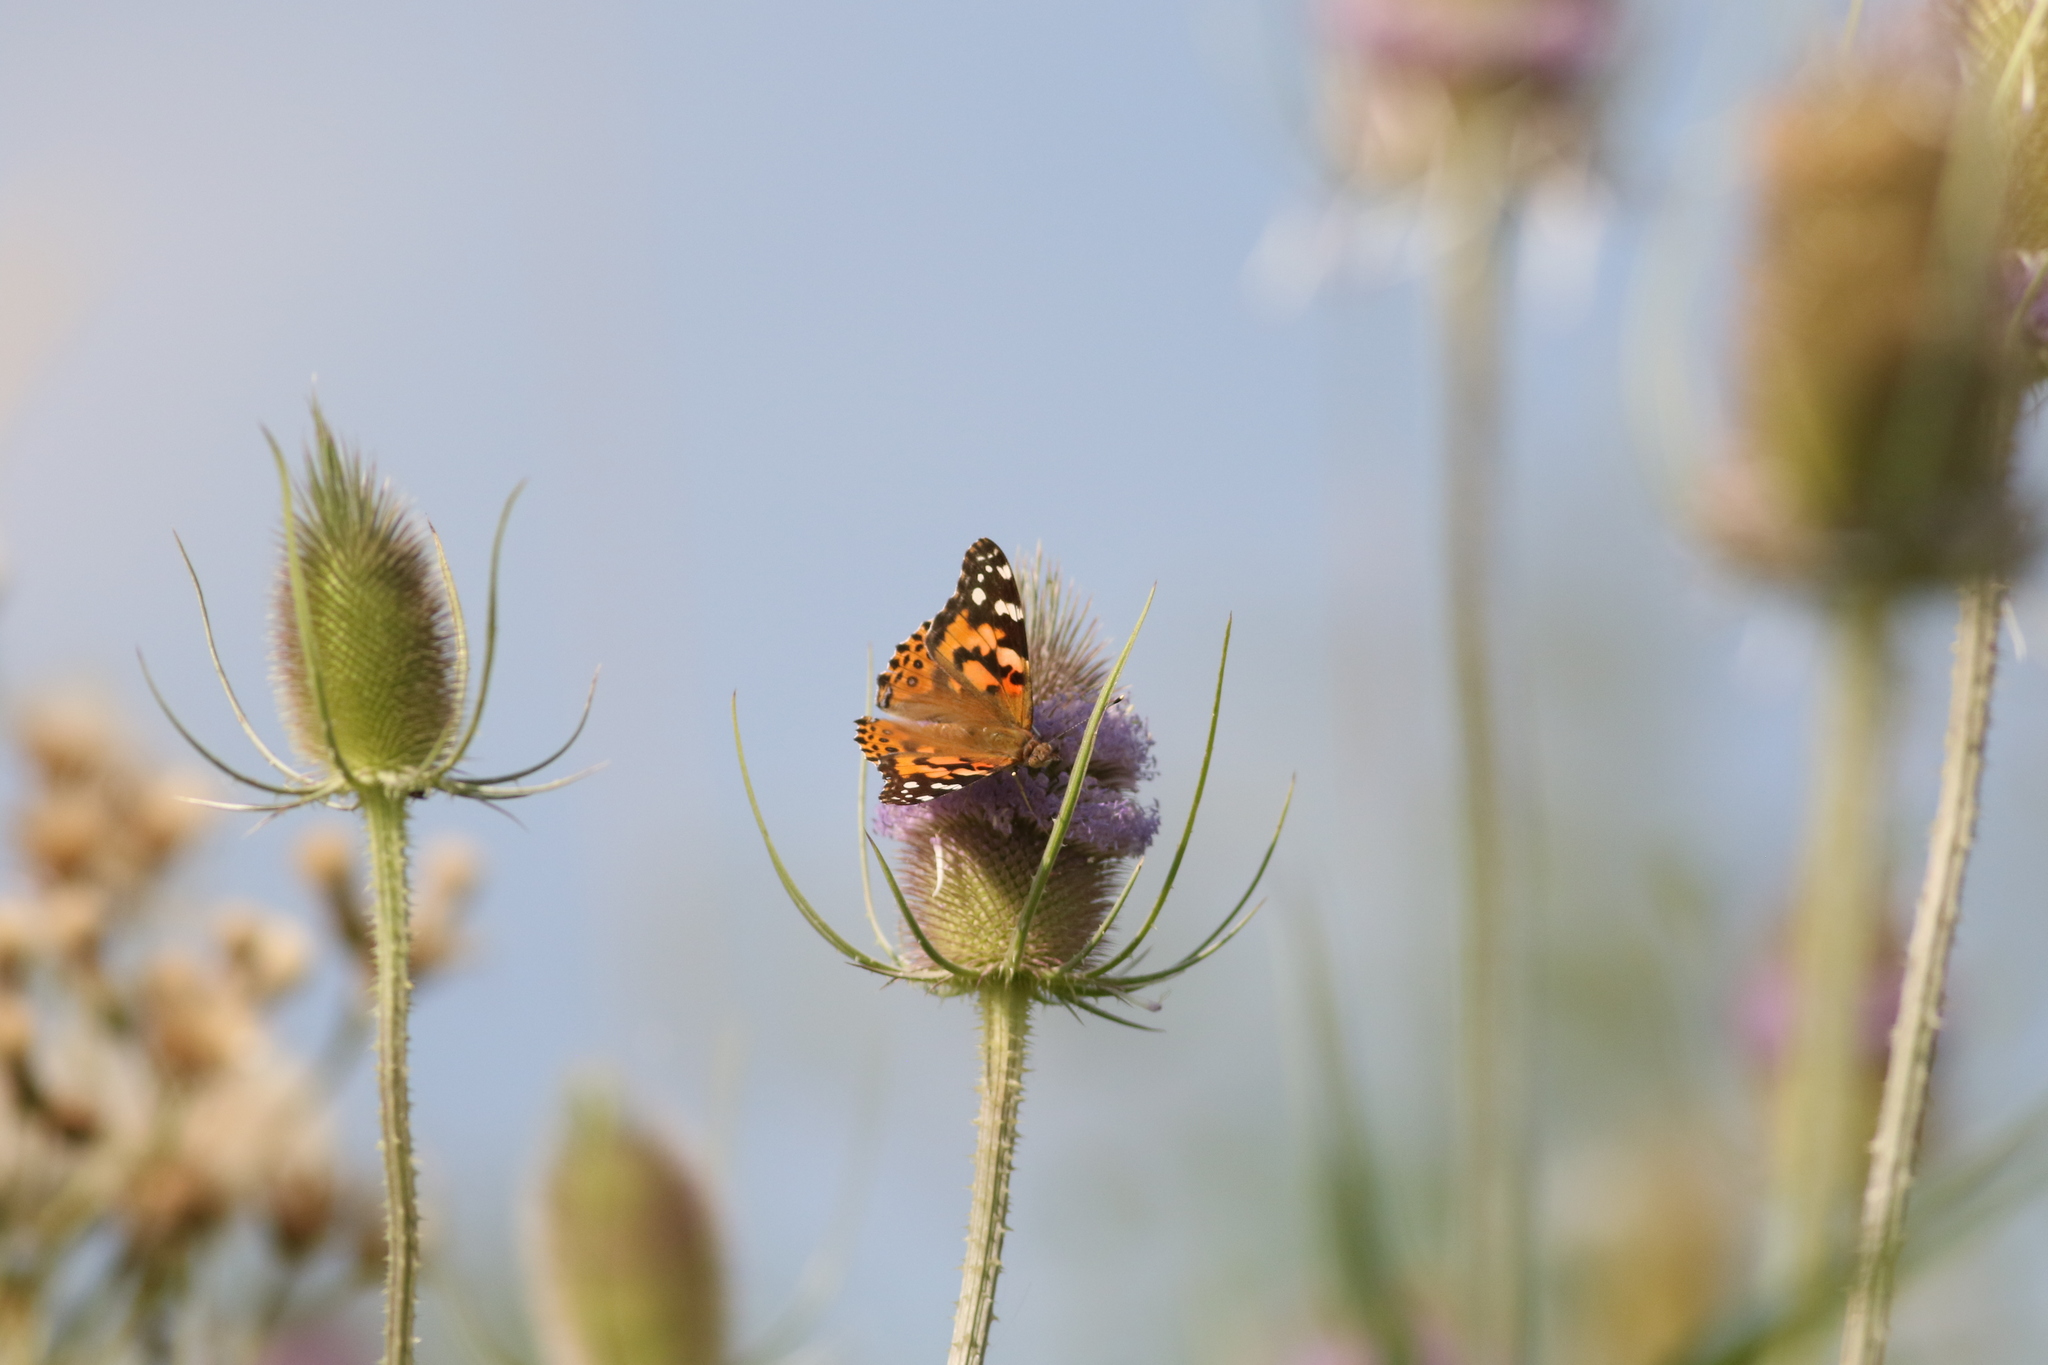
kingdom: Animalia
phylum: Arthropoda
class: Insecta
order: Lepidoptera
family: Nymphalidae
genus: Vanessa
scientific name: Vanessa cardui
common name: Painted lady
